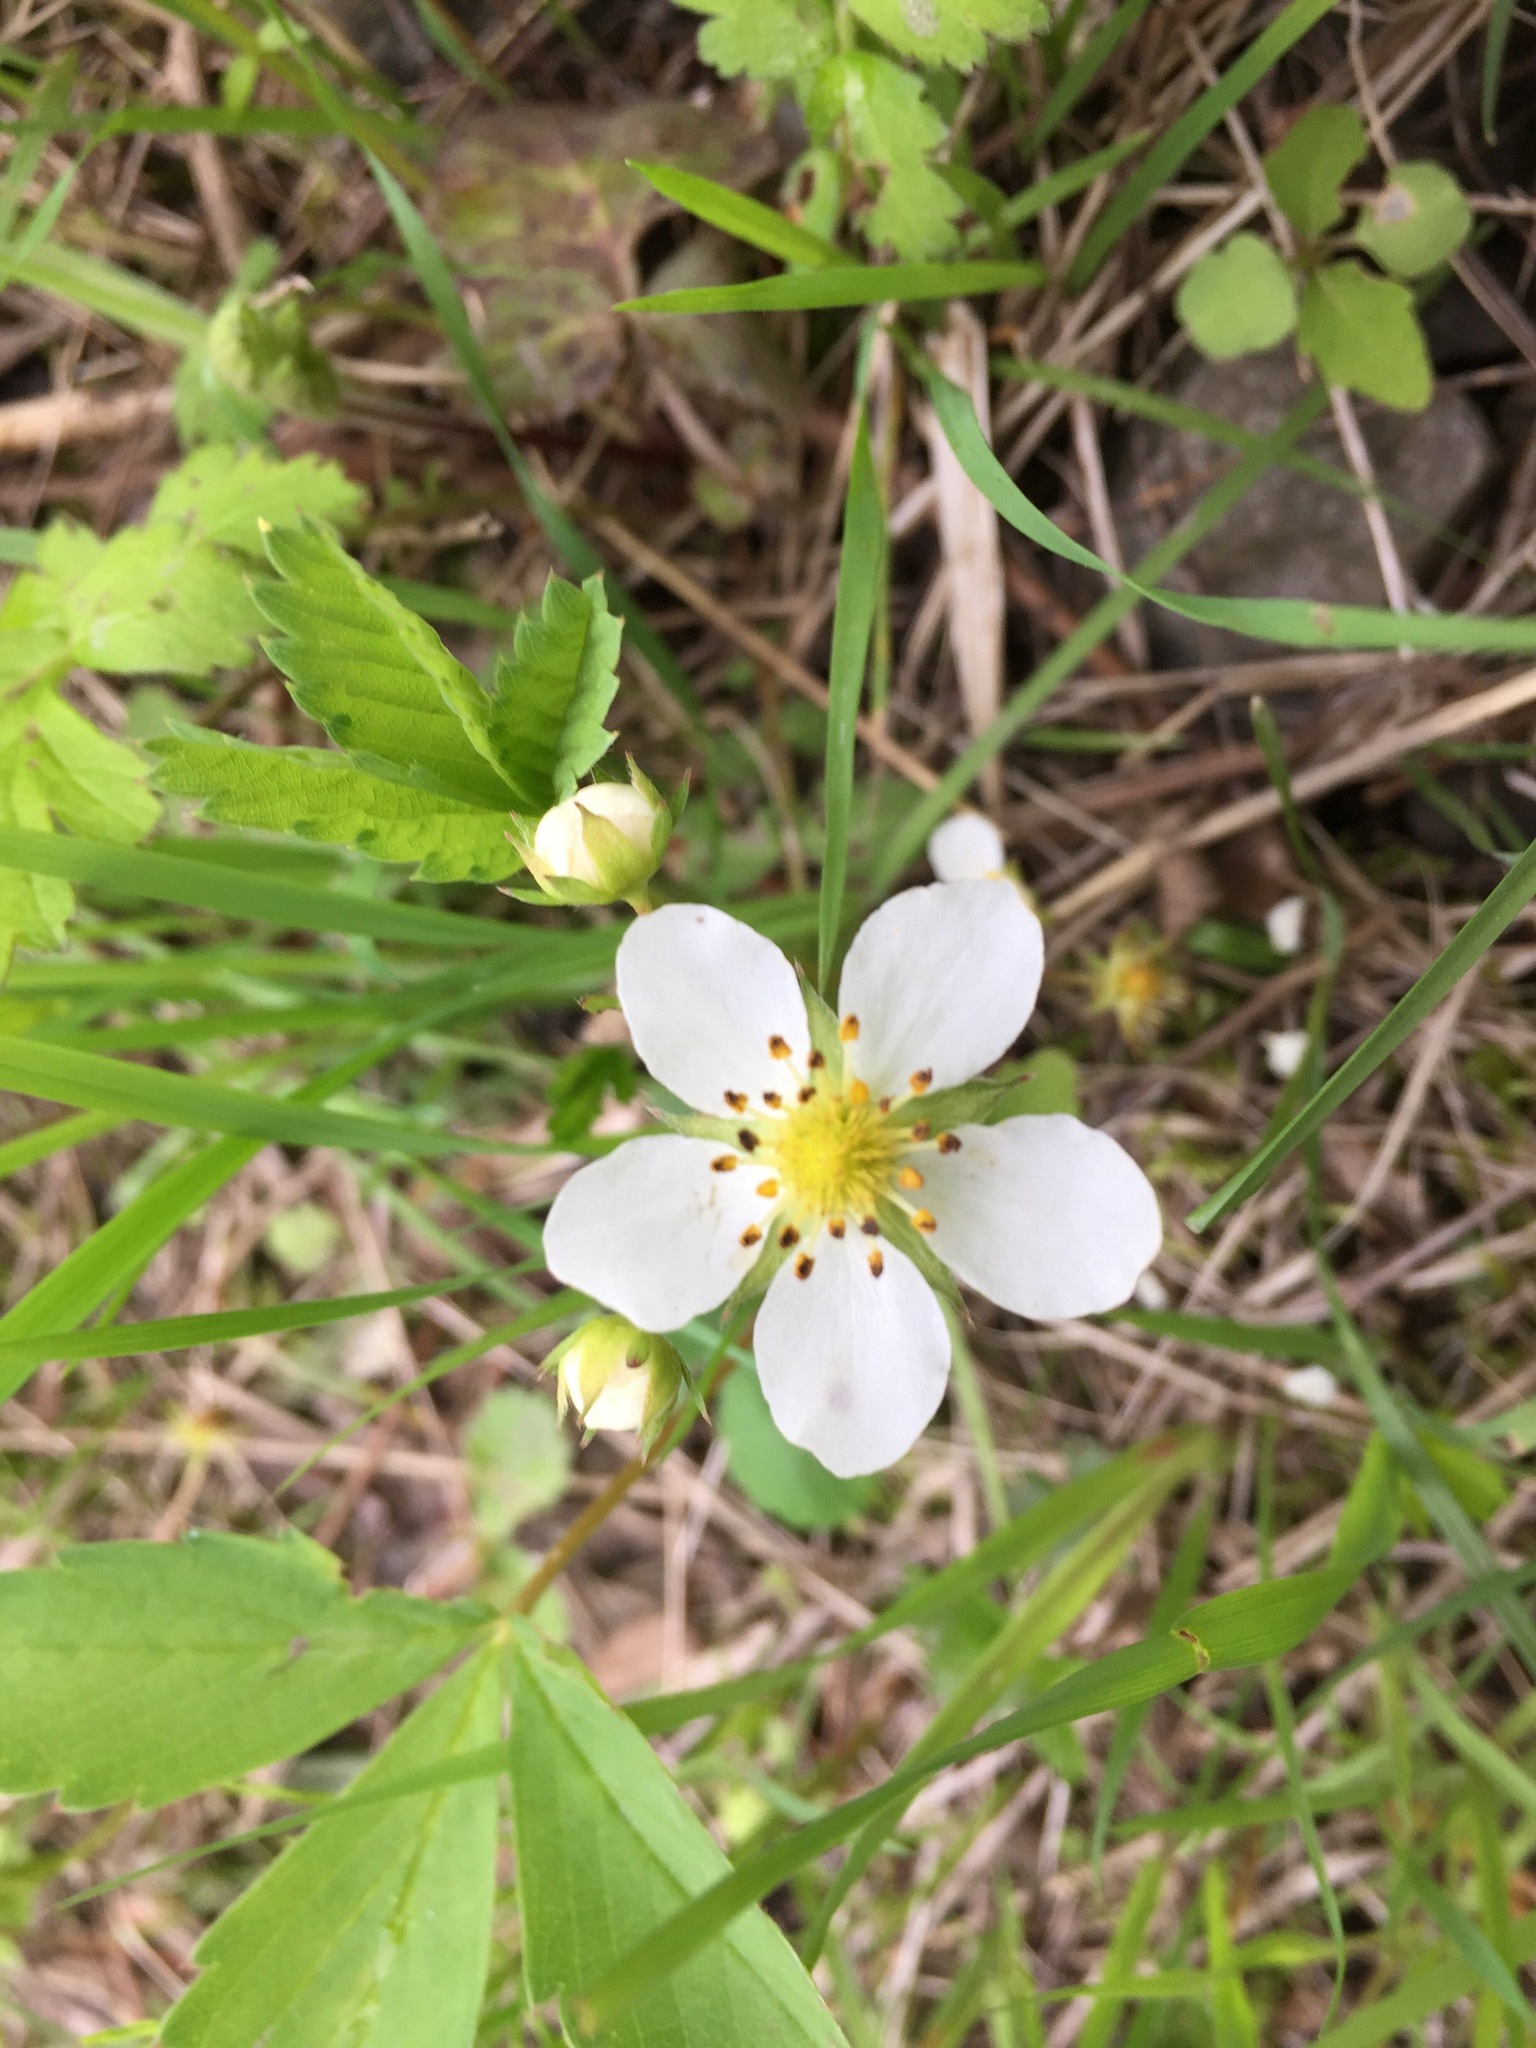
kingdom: Plantae
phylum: Tracheophyta
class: Magnoliopsida
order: Rosales
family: Rosaceae
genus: Fragaria
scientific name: Fragaria virginiana
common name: Thickleaved wild strawberry
